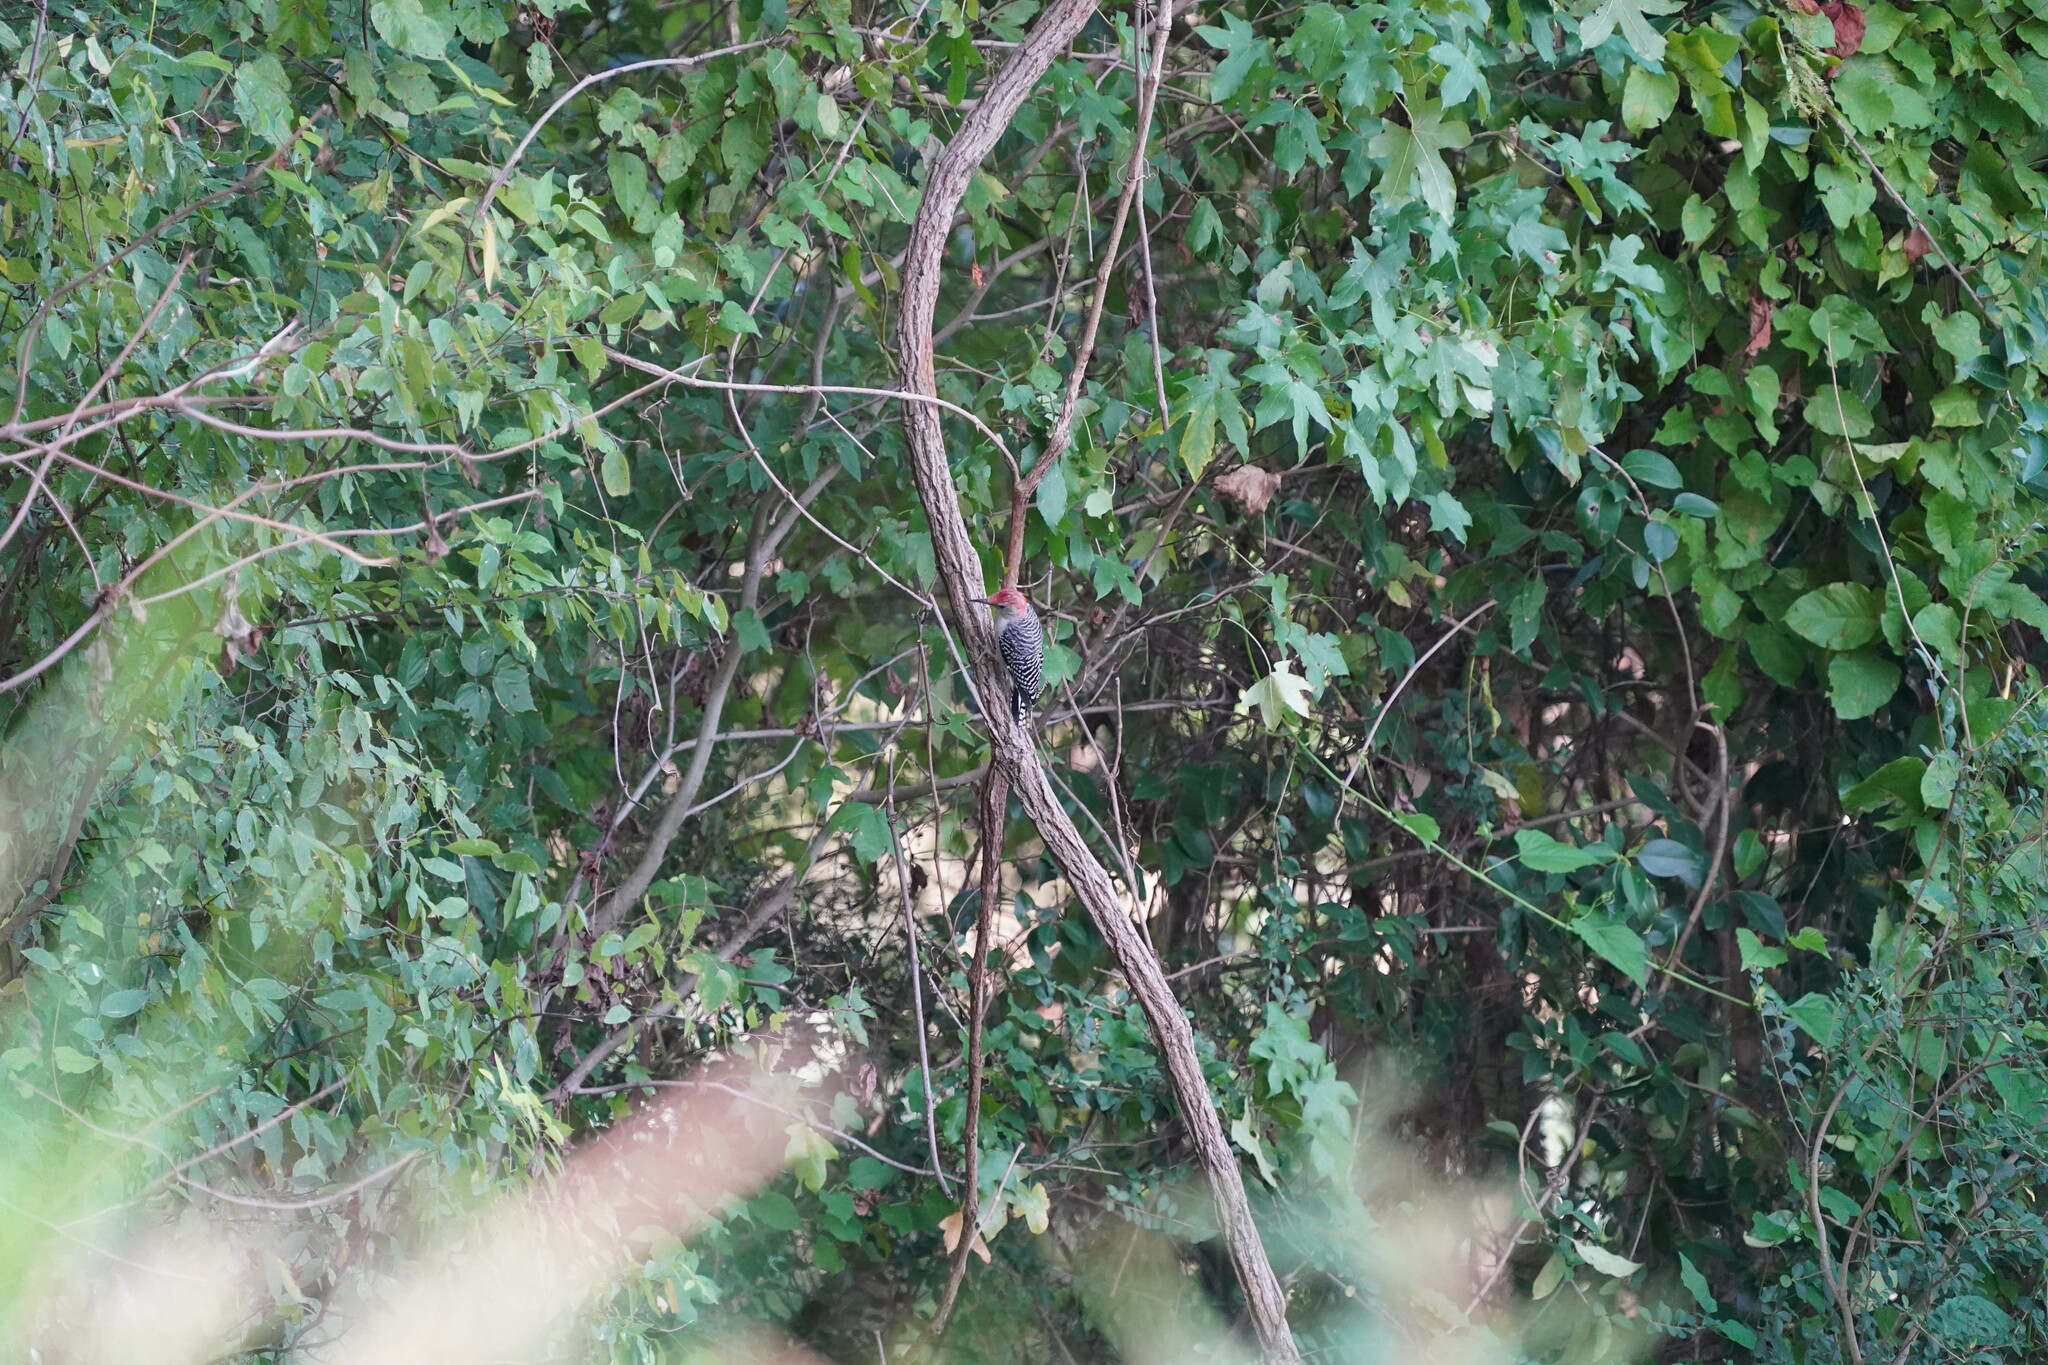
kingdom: Animalia
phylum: Chordata
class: Aves
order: Piciformes
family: Picidae
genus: Melanerpes
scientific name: Melanerpes carolinus
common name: Red-bellied woodpecker
